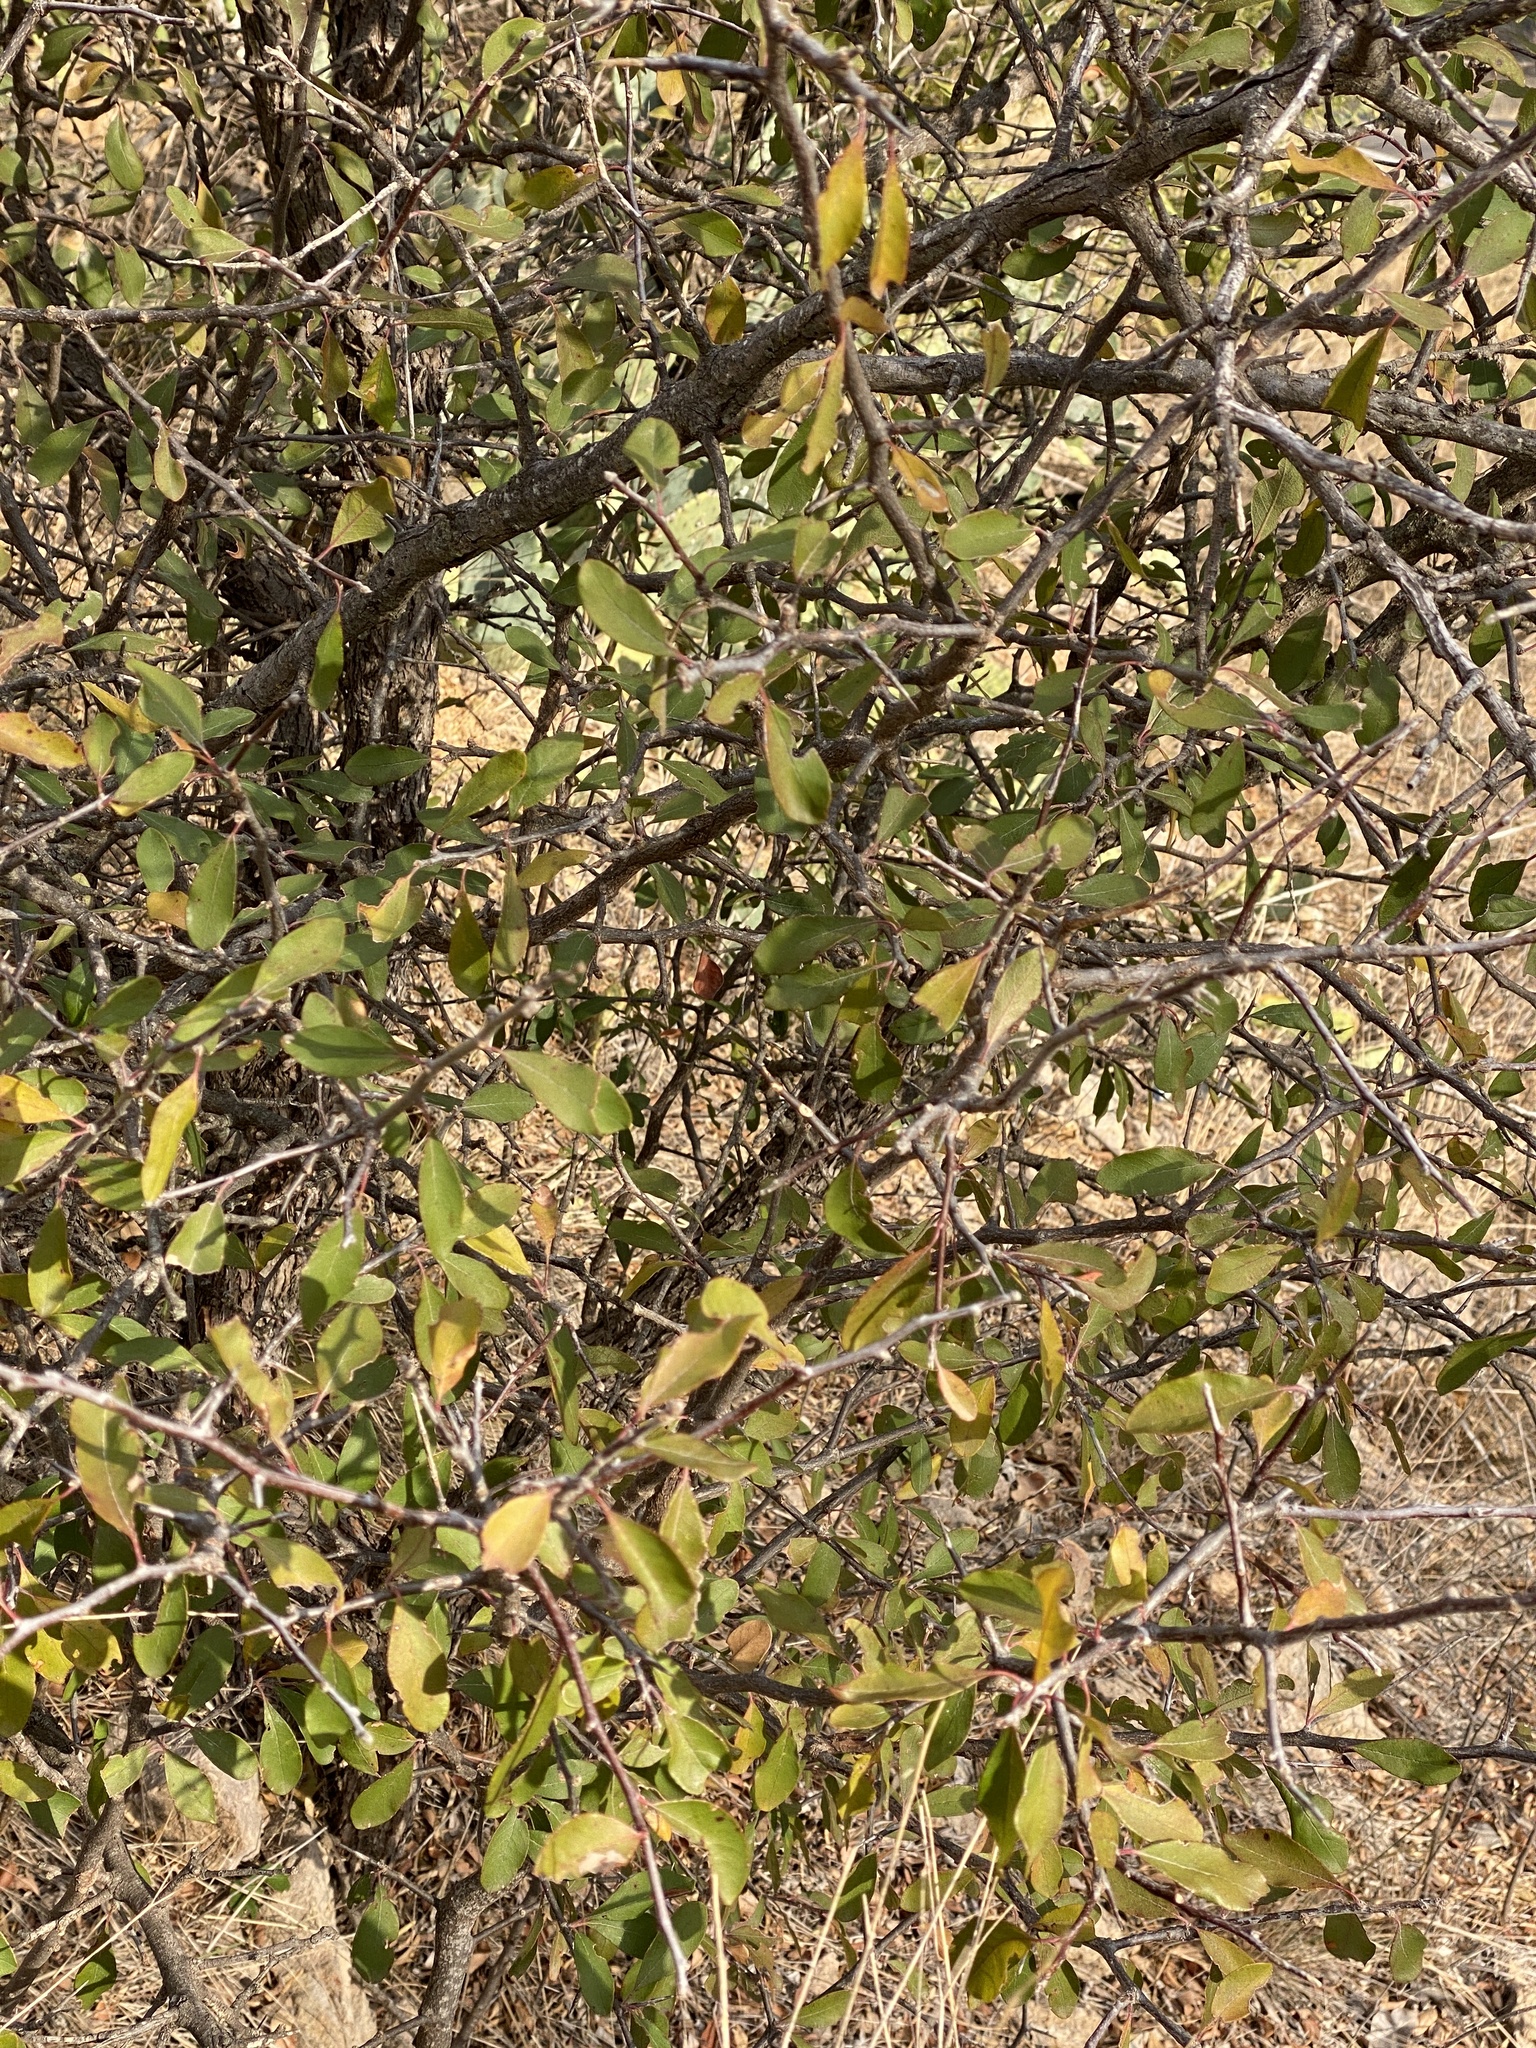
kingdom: Plantae
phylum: Tracheophyta
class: Magnoliopsida
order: Ericales
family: Sapotaceae
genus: Sideroxylon
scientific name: Sideroxylon lanuginosum
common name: Chittamwood
